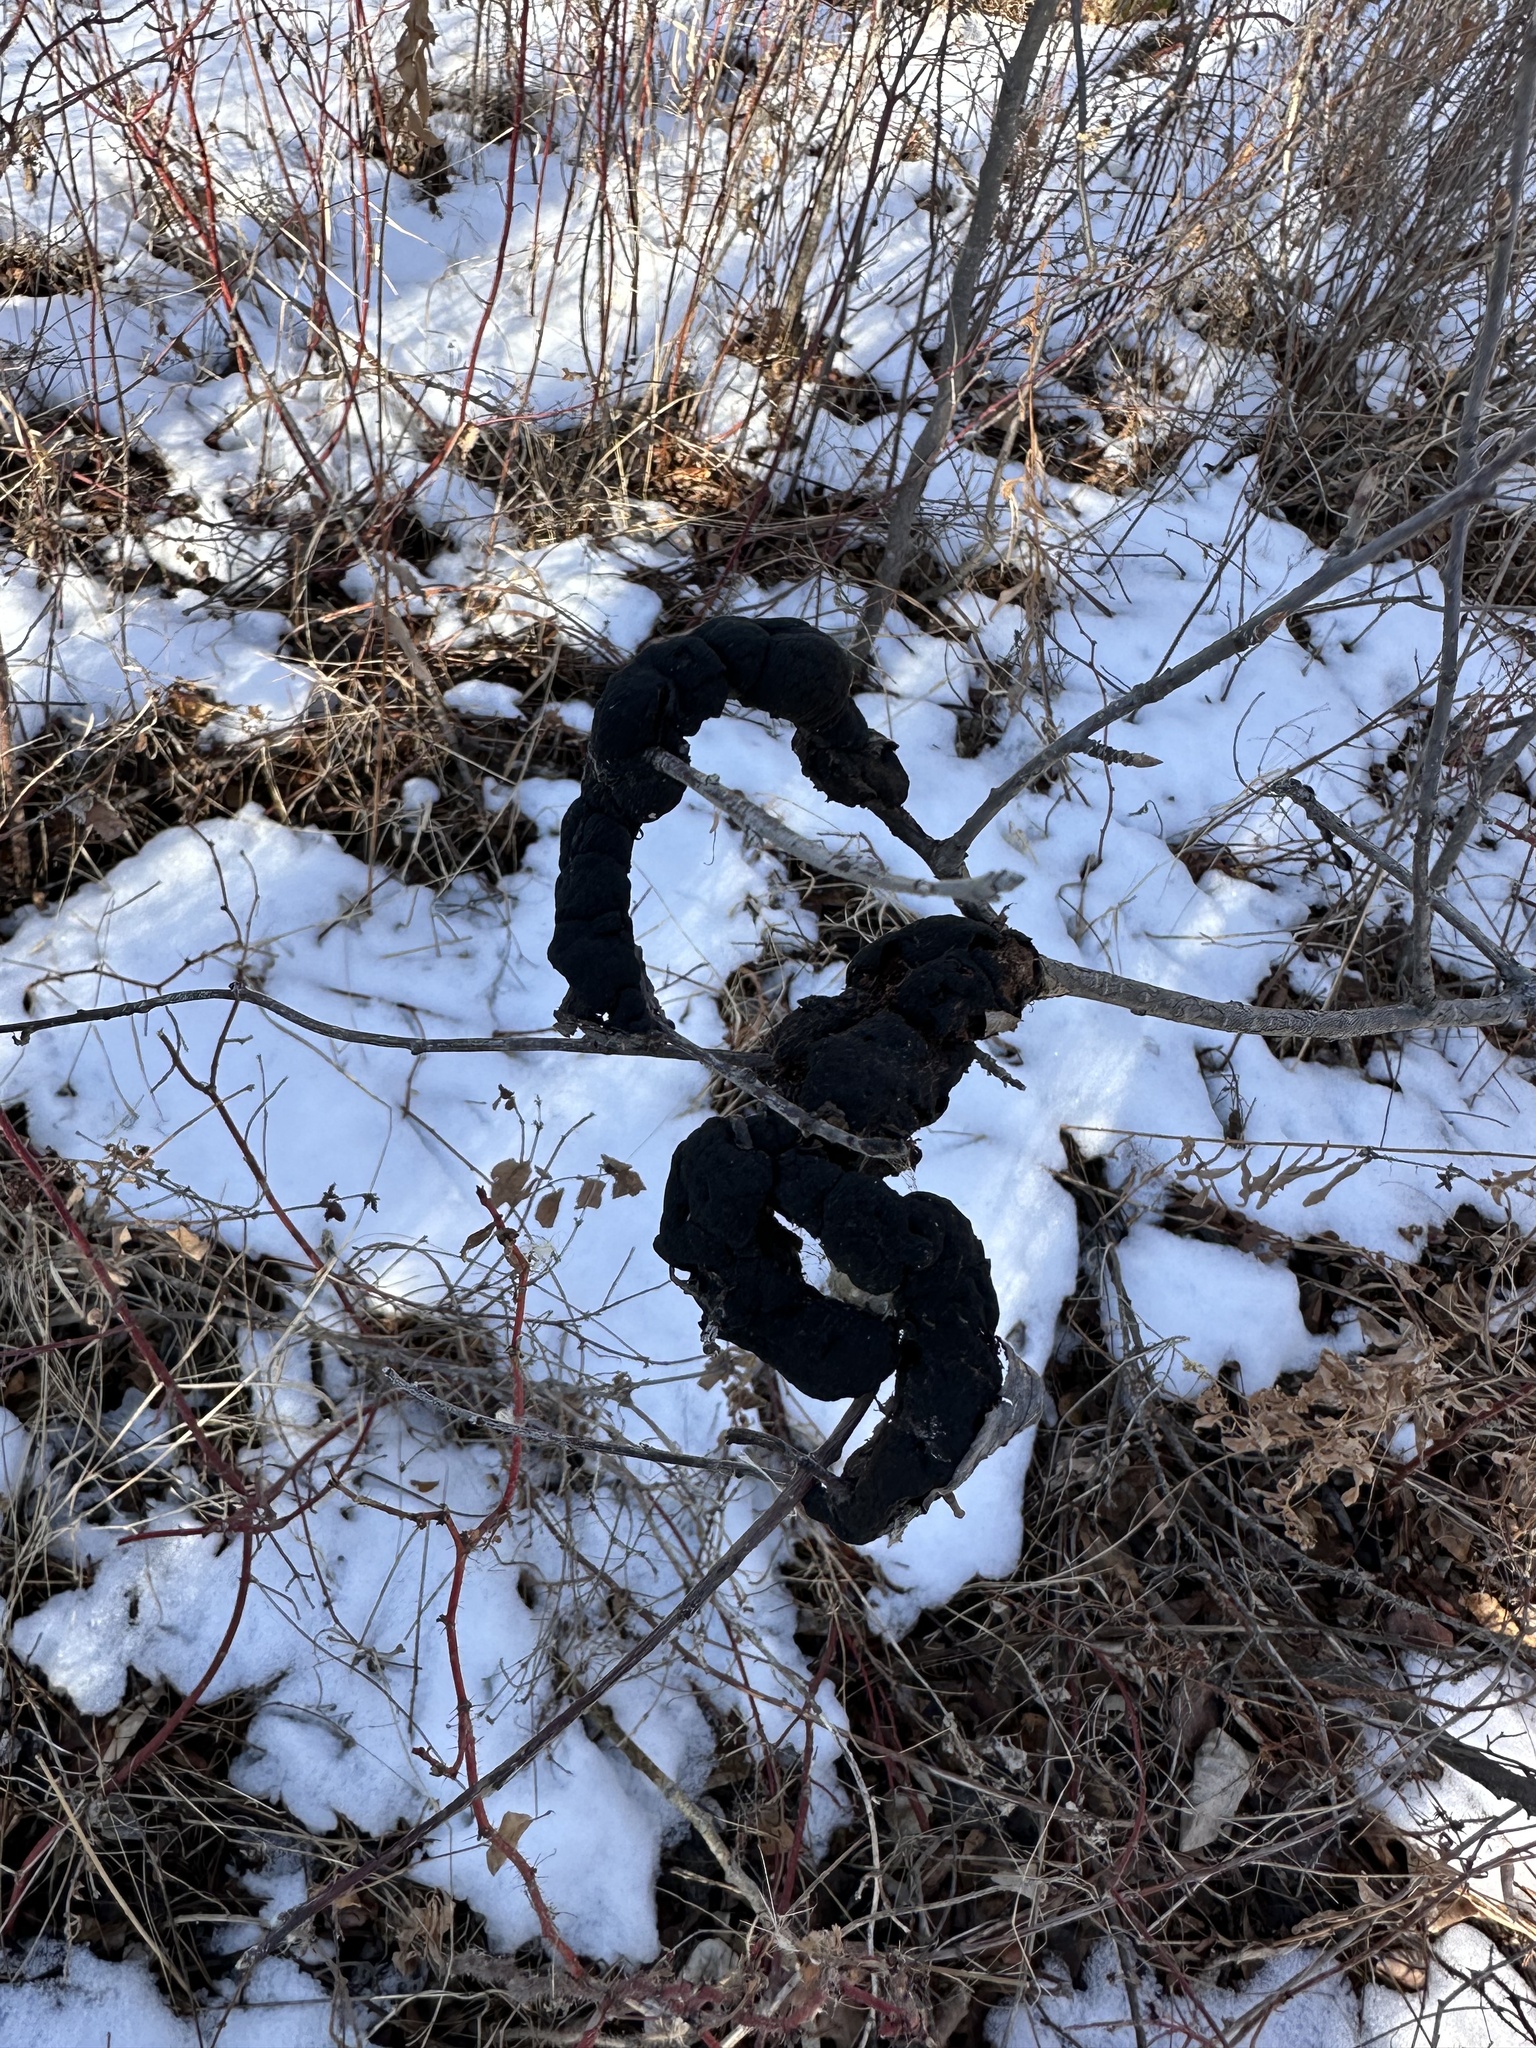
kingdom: Fungi
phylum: Ascomycota
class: Dothideomycetes
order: Venturiales
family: Venturiaceae
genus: Apiosporina
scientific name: Apiosporina morbosa
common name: Black knot
